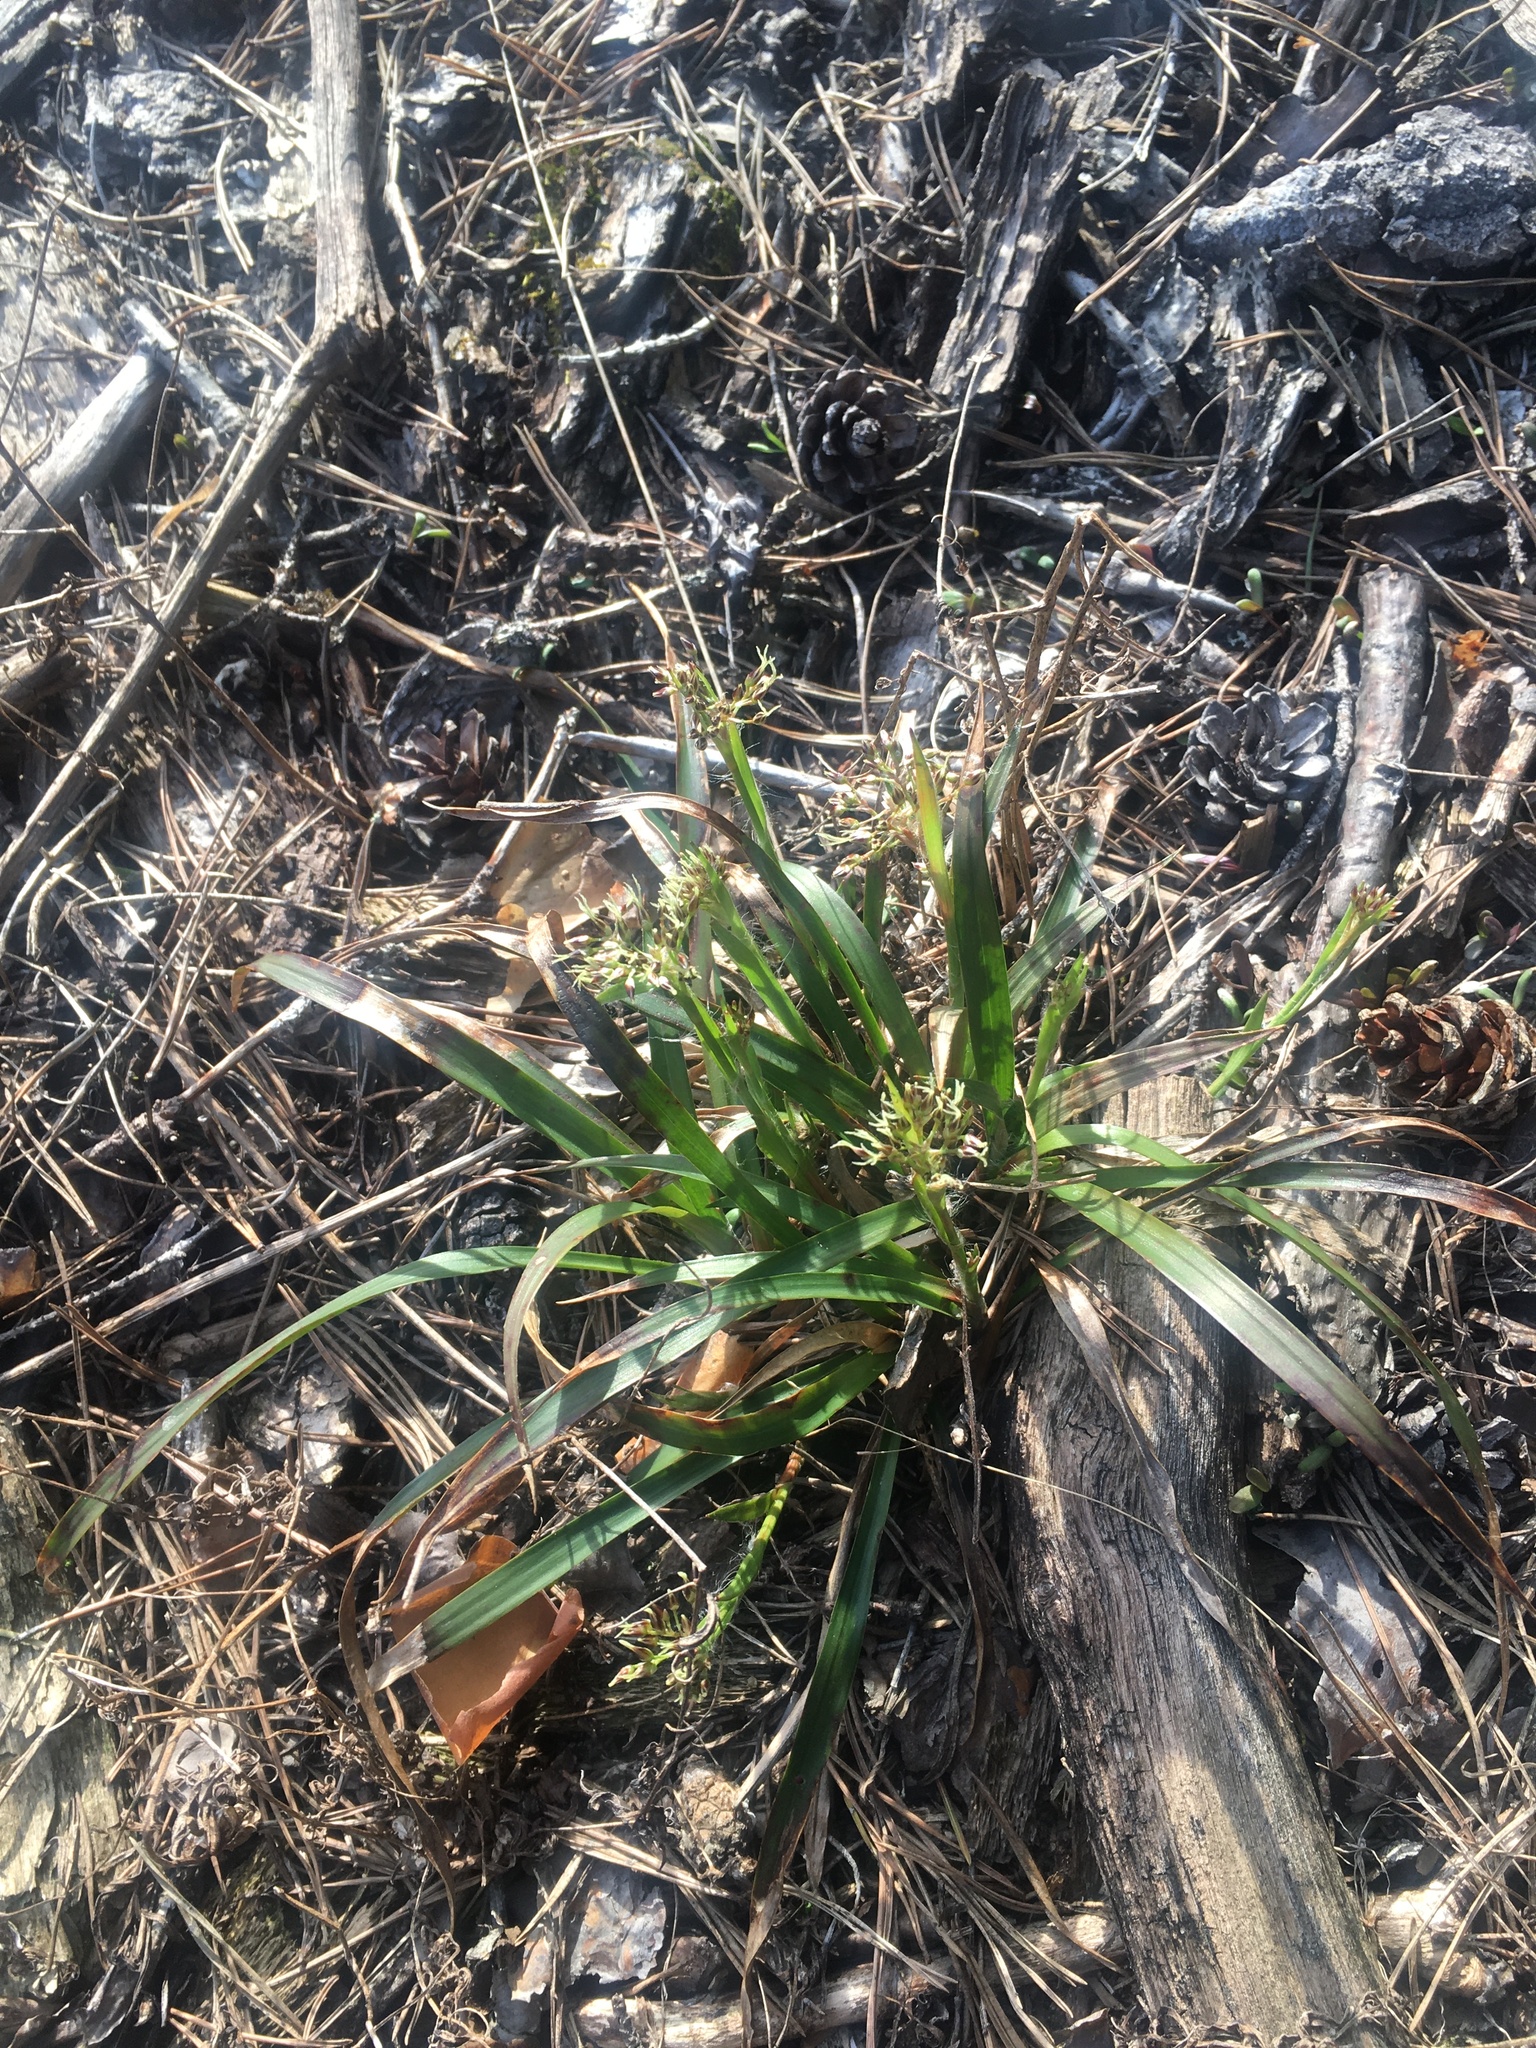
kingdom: Plantae
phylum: Tracheophyta
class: Liliopsida
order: Poales
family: Juncaceae
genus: Luzula
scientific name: Luzula pilosa
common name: Hairy wood-rush
